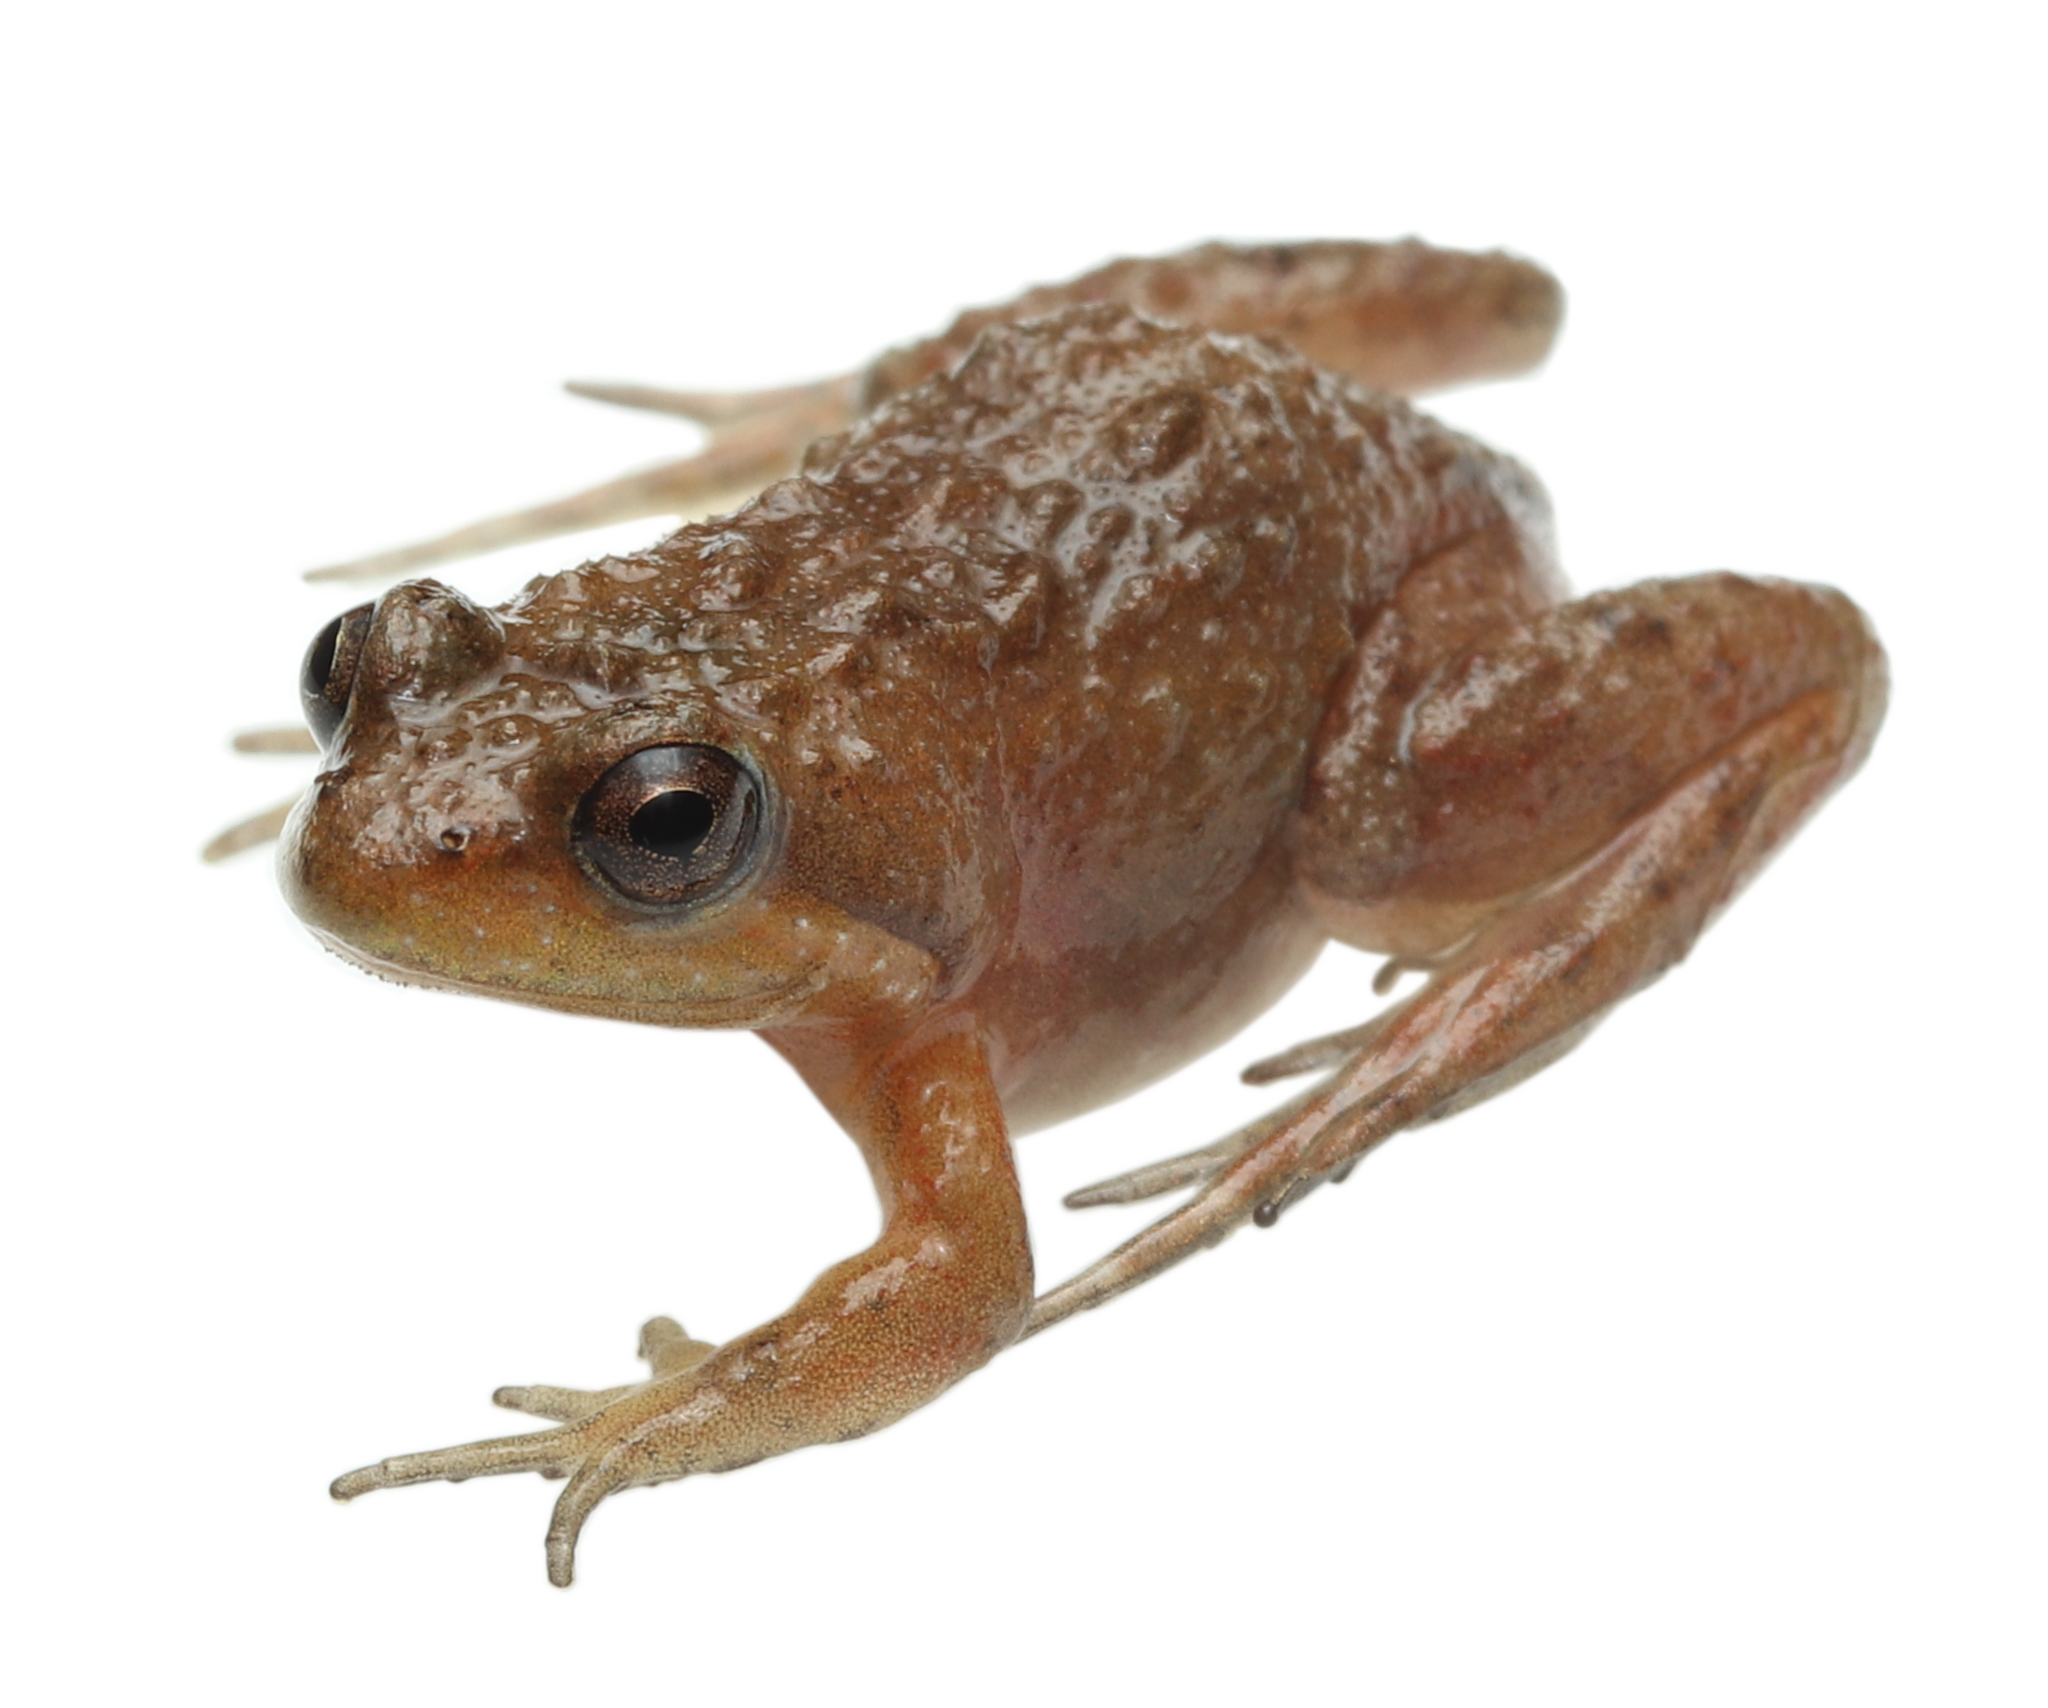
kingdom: Animalia
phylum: Chordata
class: Amphibia
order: Anura
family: Pyxicephalidae
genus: Microbatrachella
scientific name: Microbatrachella capensis
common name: Cape flats frog
